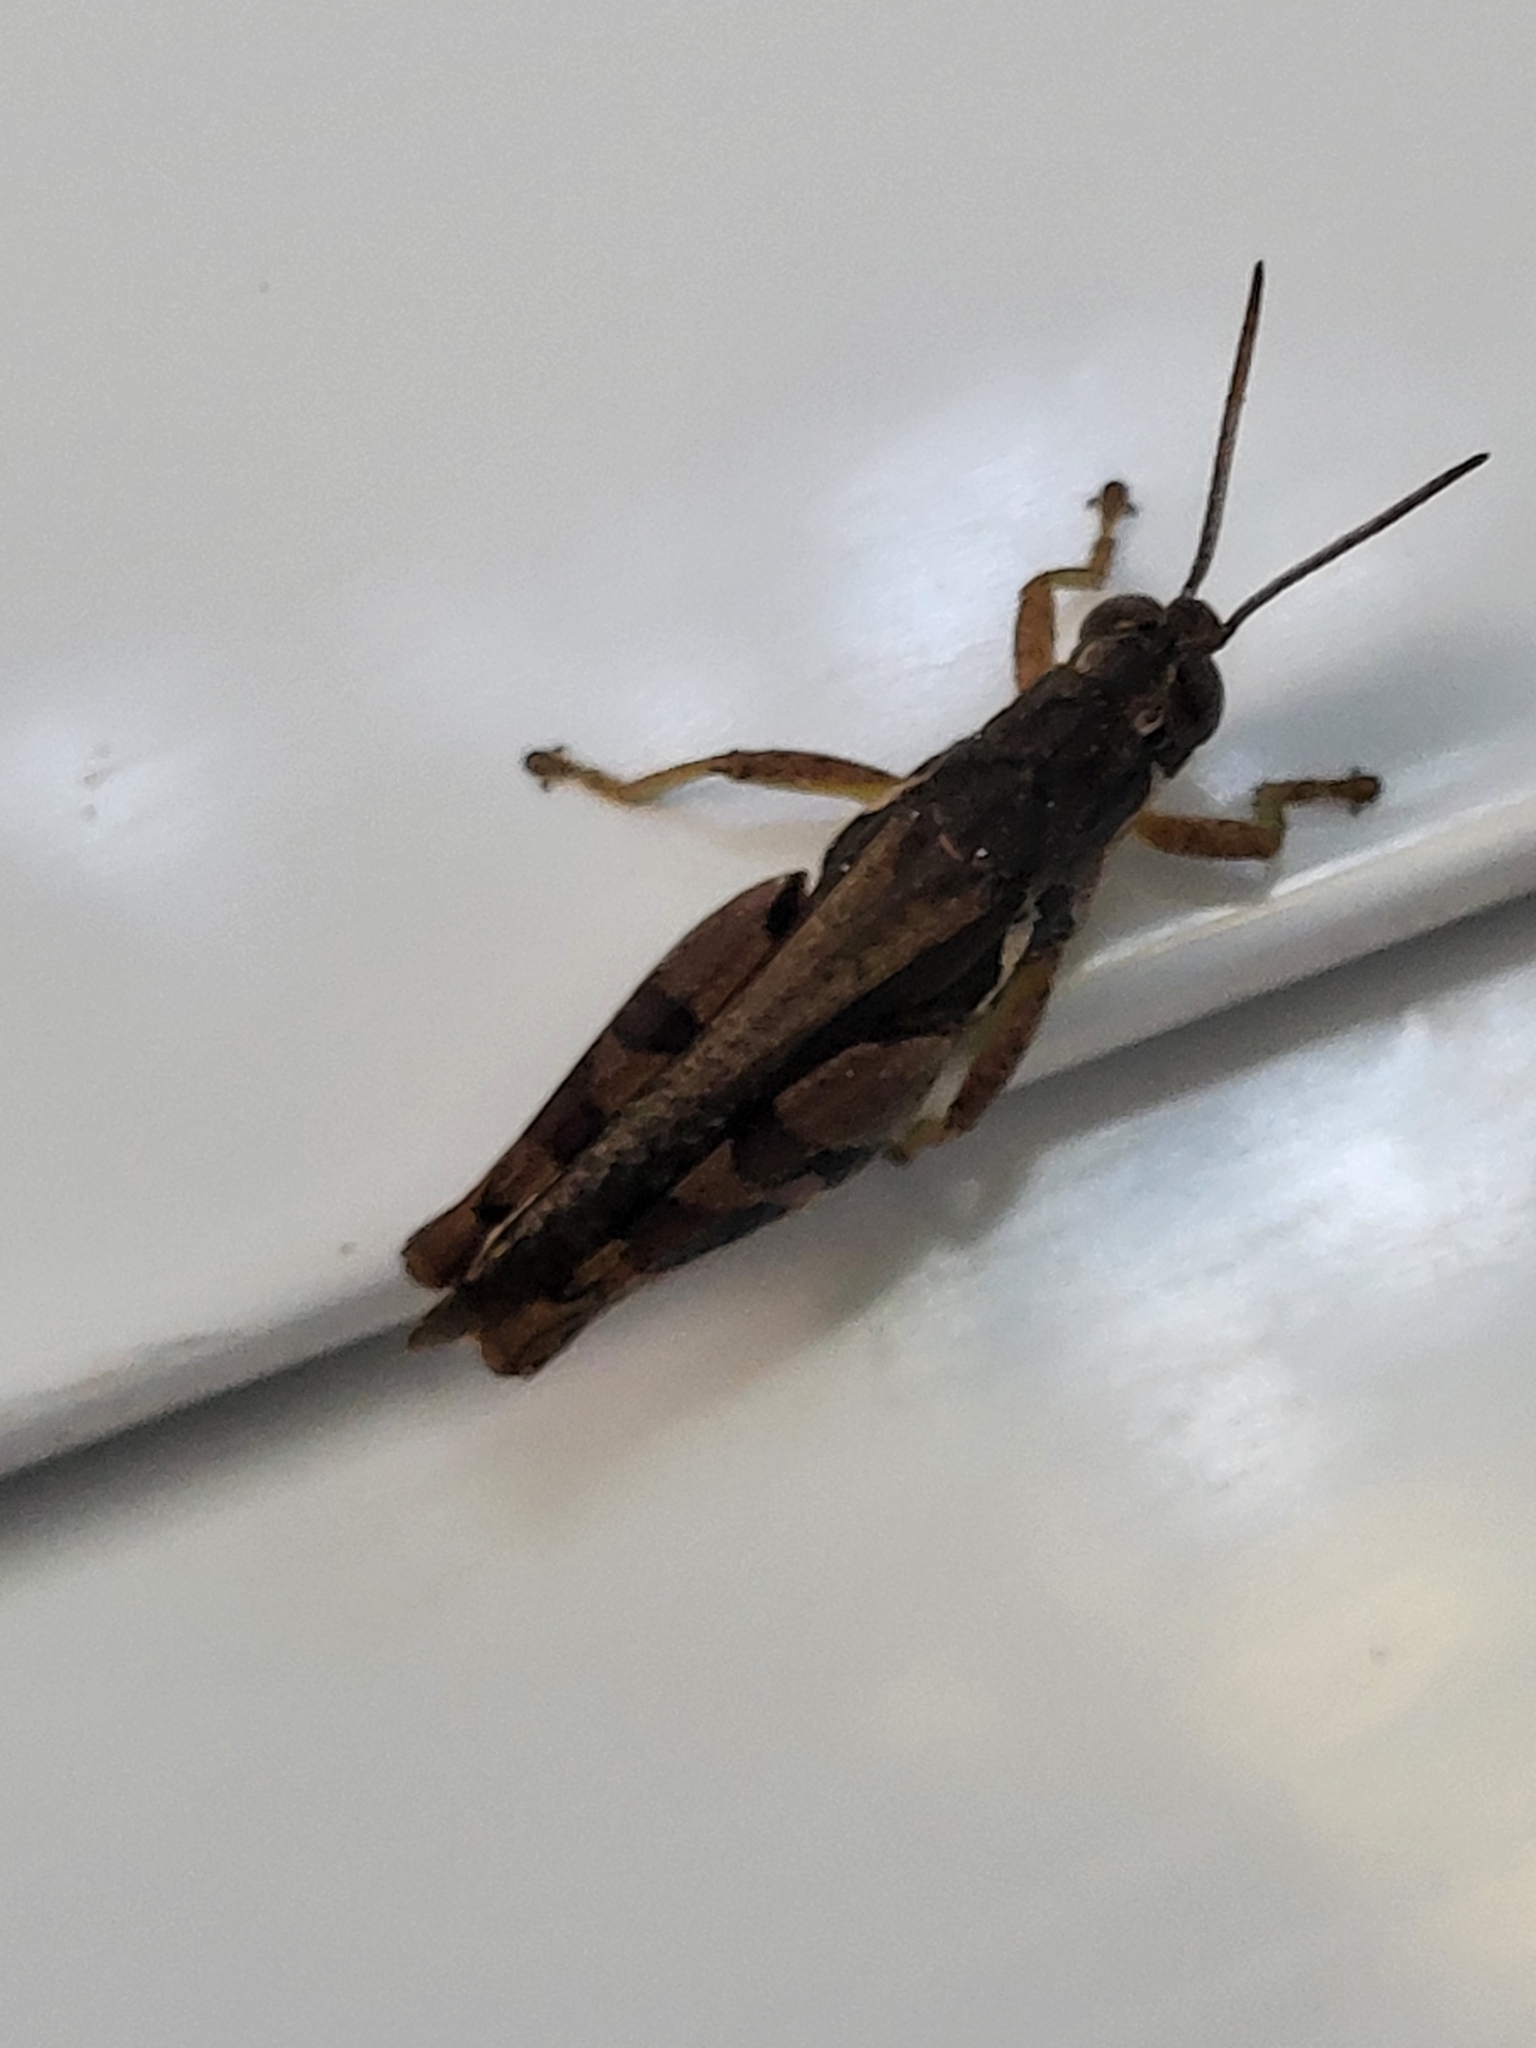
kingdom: Animalia
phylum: Arthropoda
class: Insecta
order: Orthoptera
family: Acrididae
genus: Catantops
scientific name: Catantops momboensis
